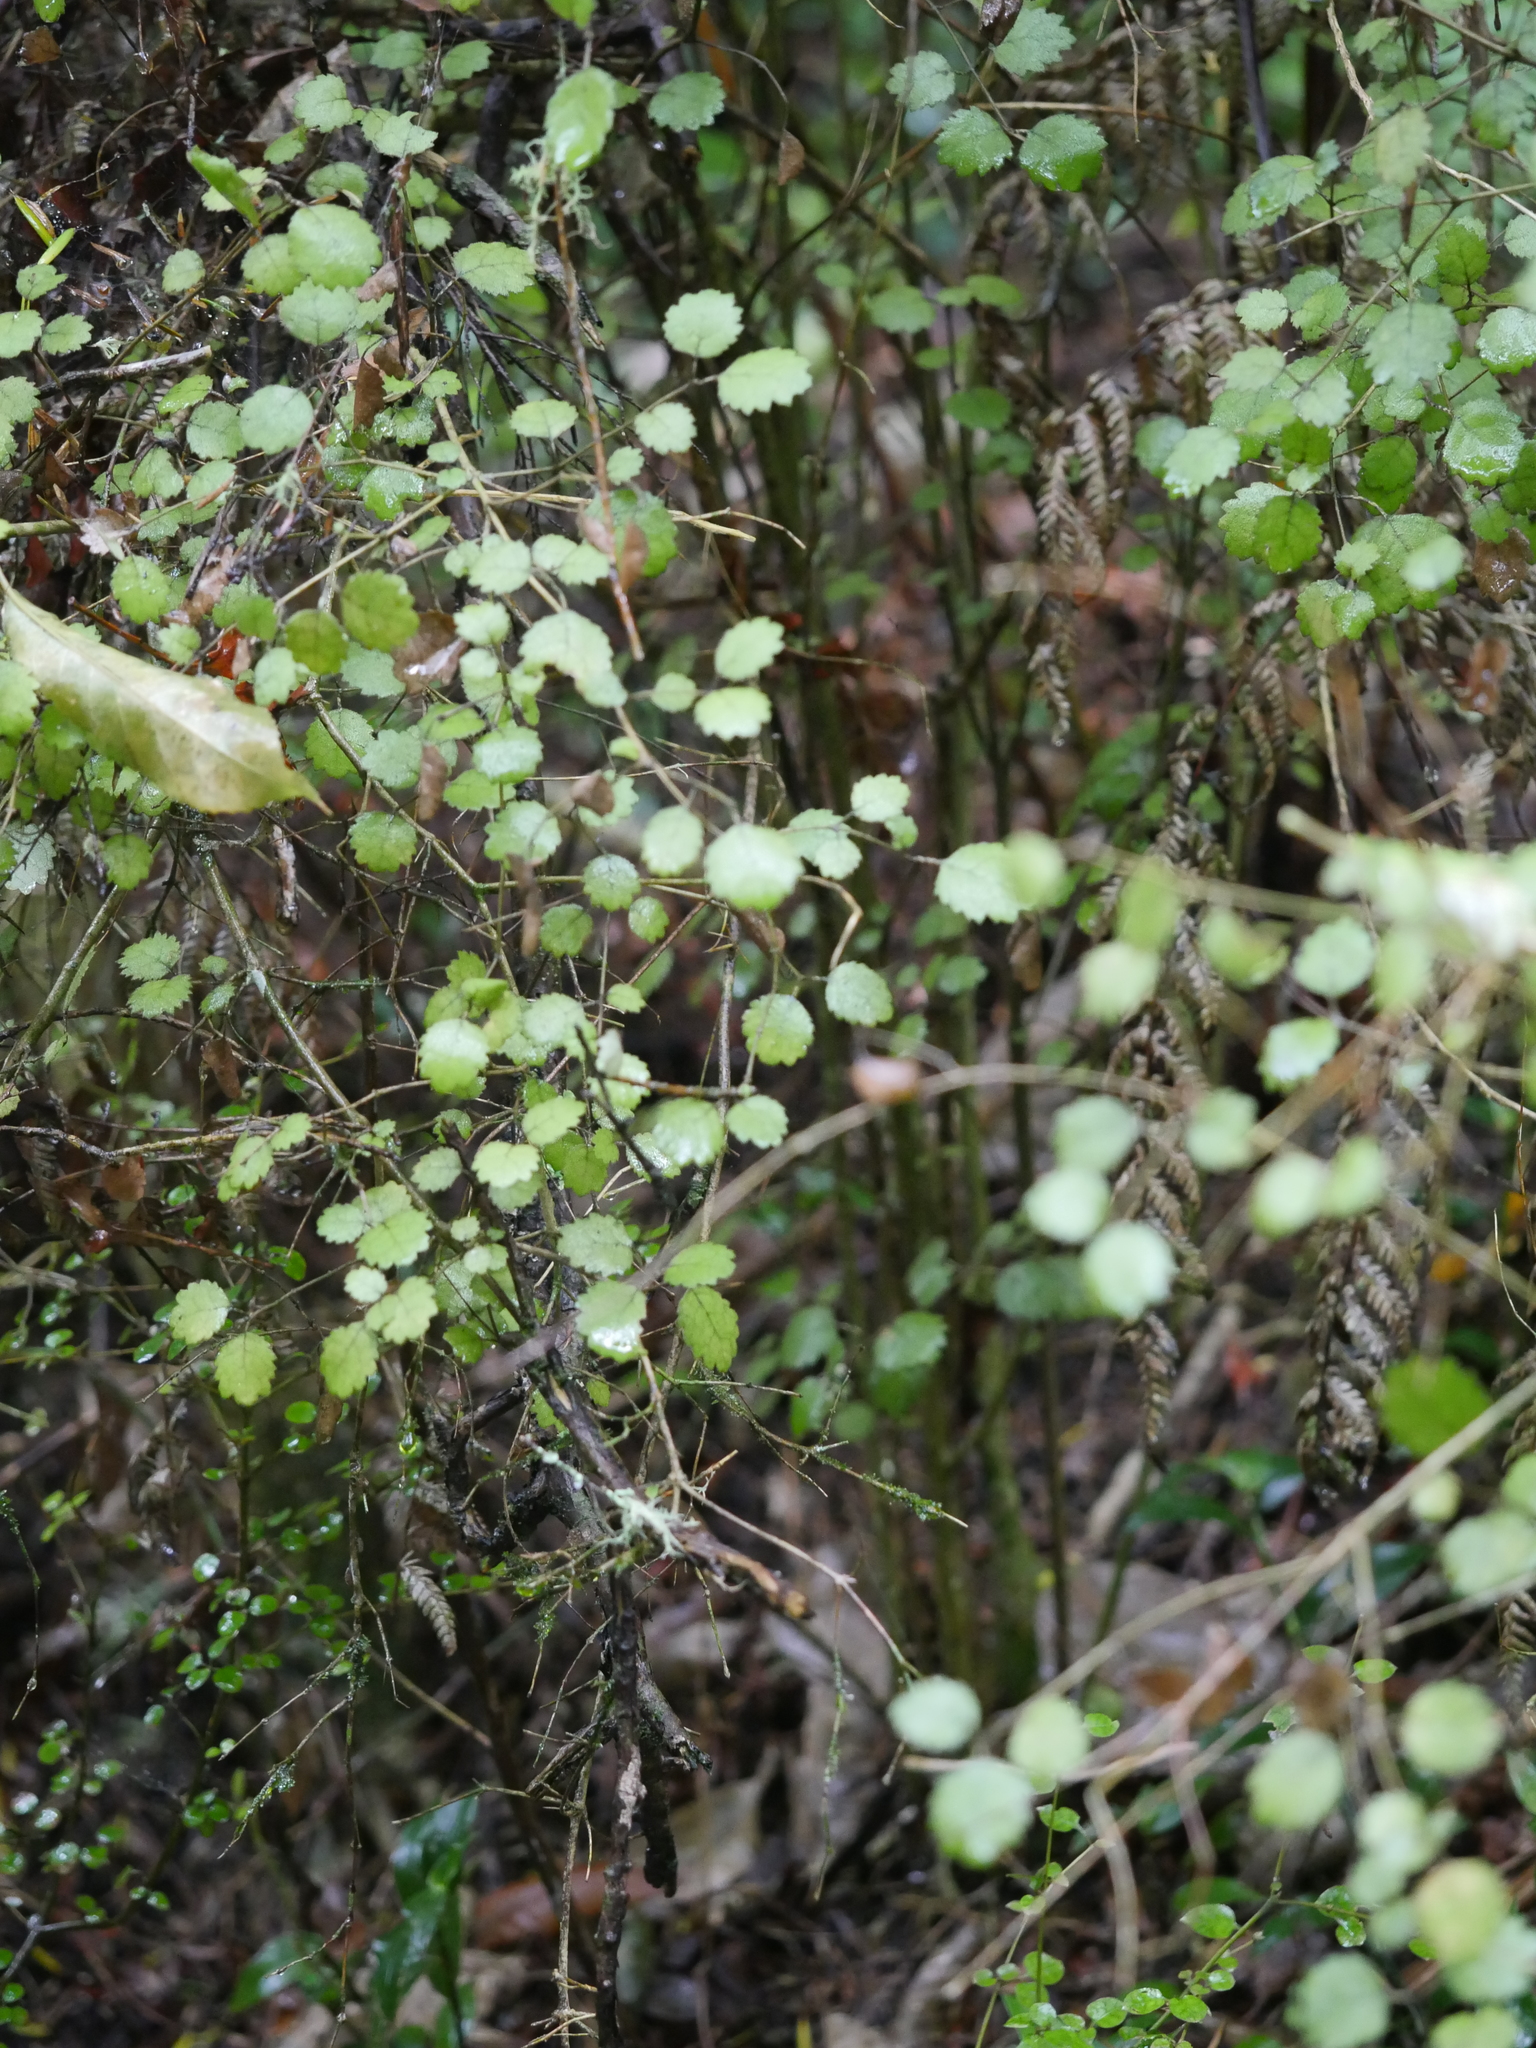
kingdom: Plantae
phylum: Tracheophyta
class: Magnoliopsida
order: Lamiales
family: Gesneriaceae
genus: Rhabdothamnus
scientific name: Rhabdothamnus solandri
